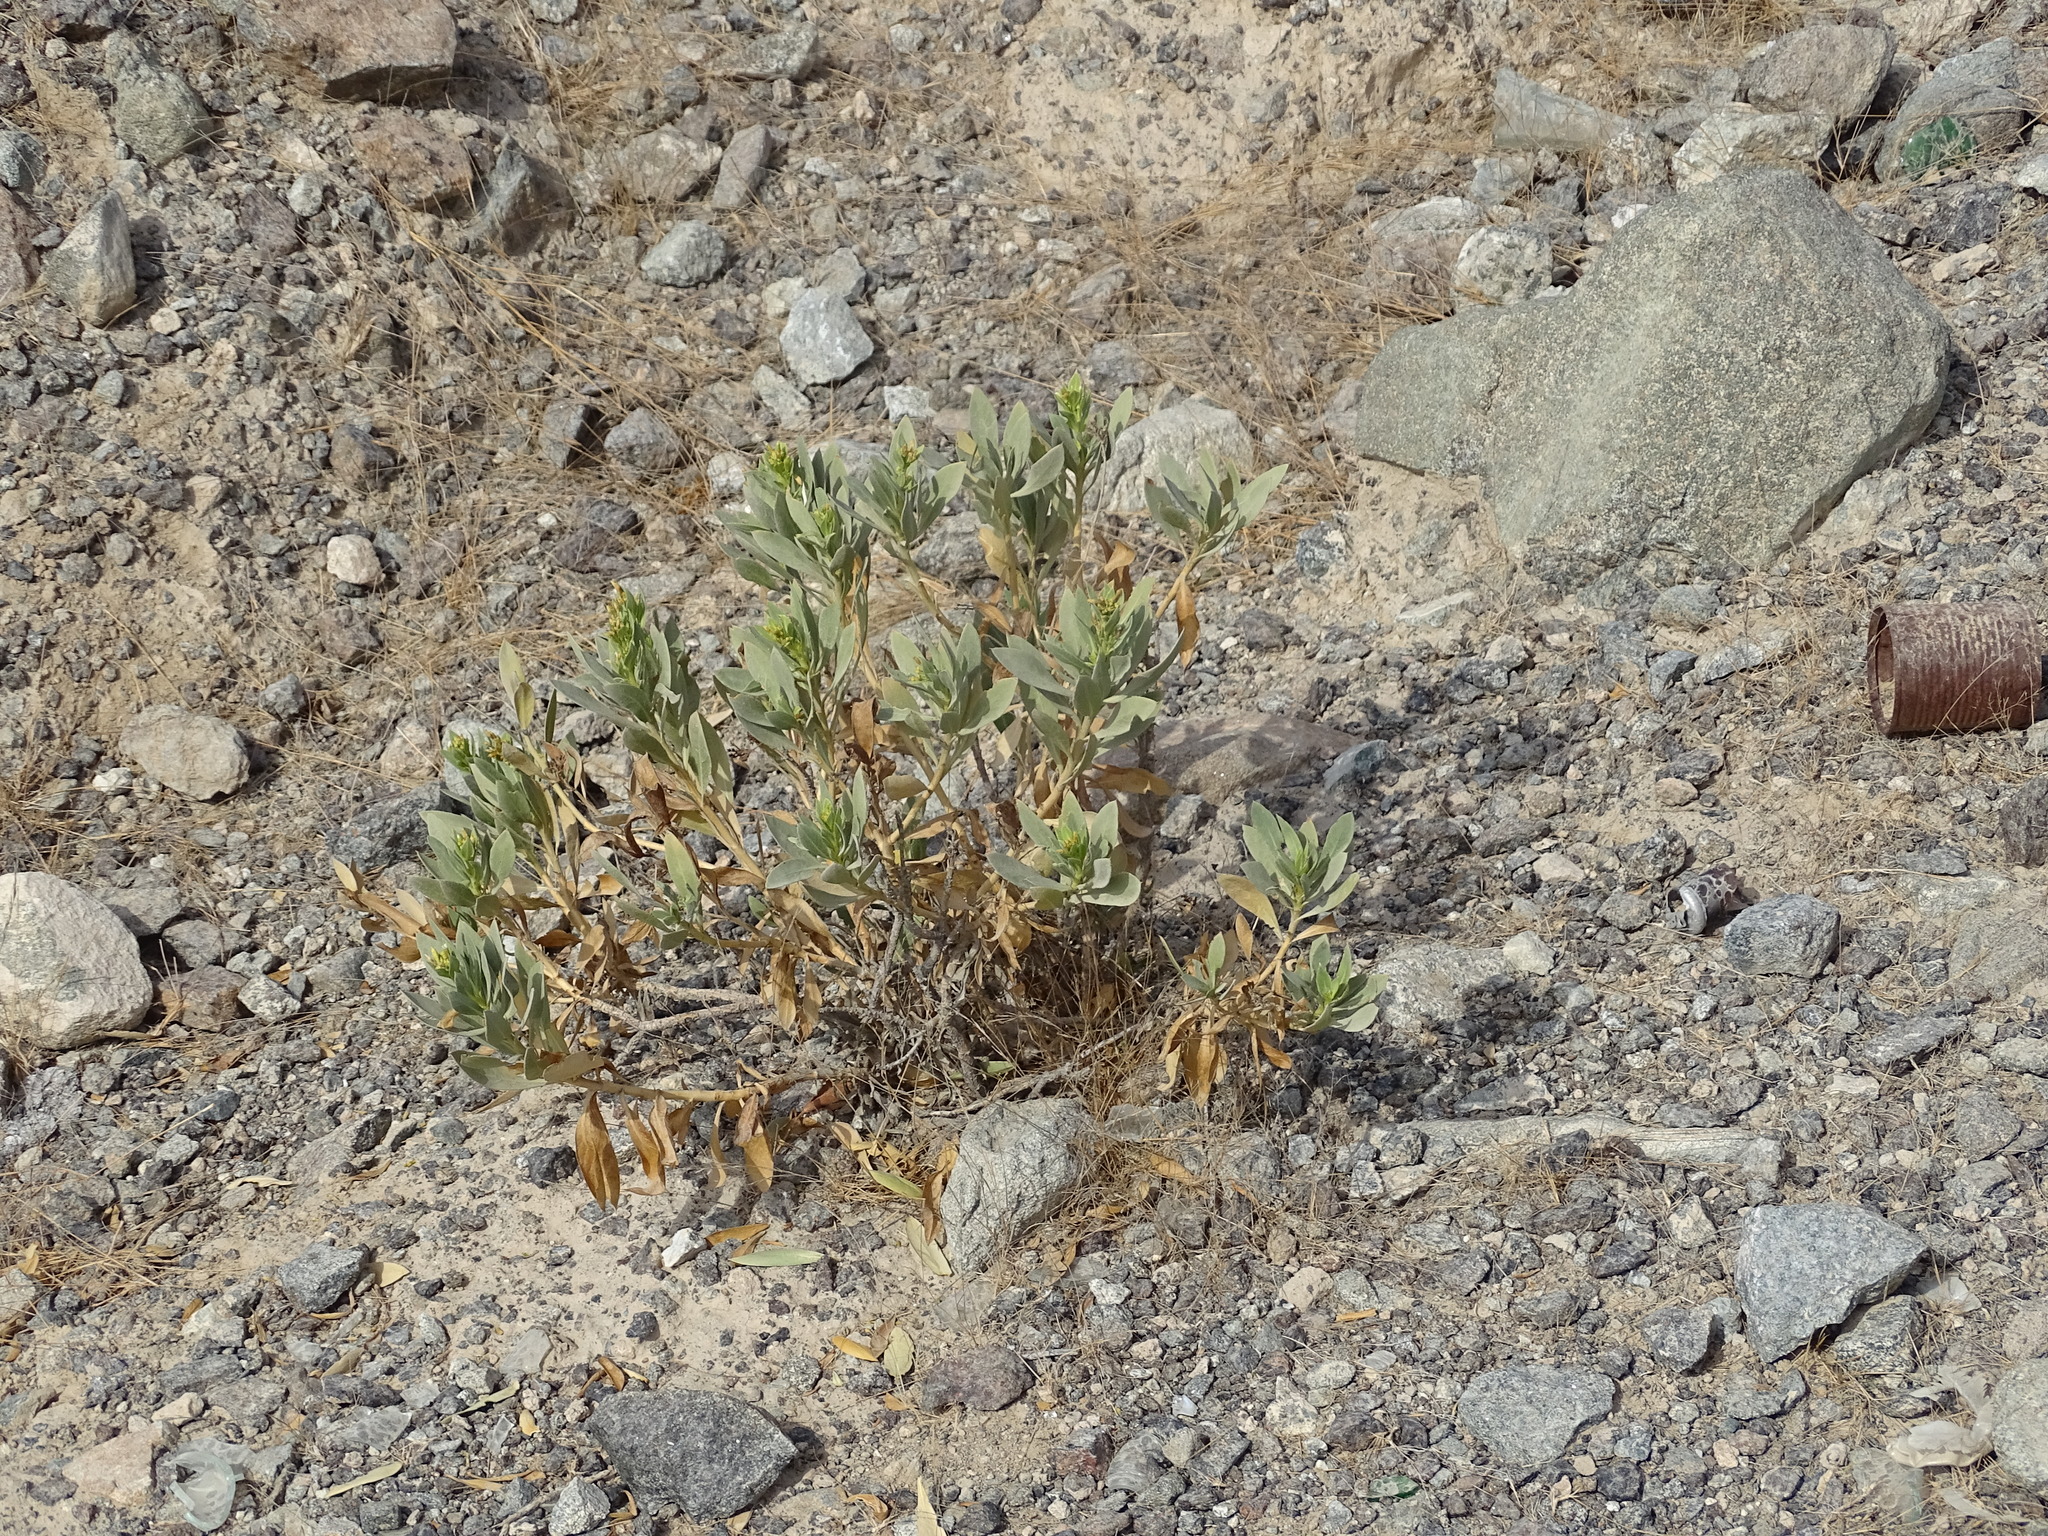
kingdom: Plantae
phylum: Tracheophyta
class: Magnoliopsida
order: Gentianales
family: Apocynaceae
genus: Rhazya
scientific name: Rhazya stricta
